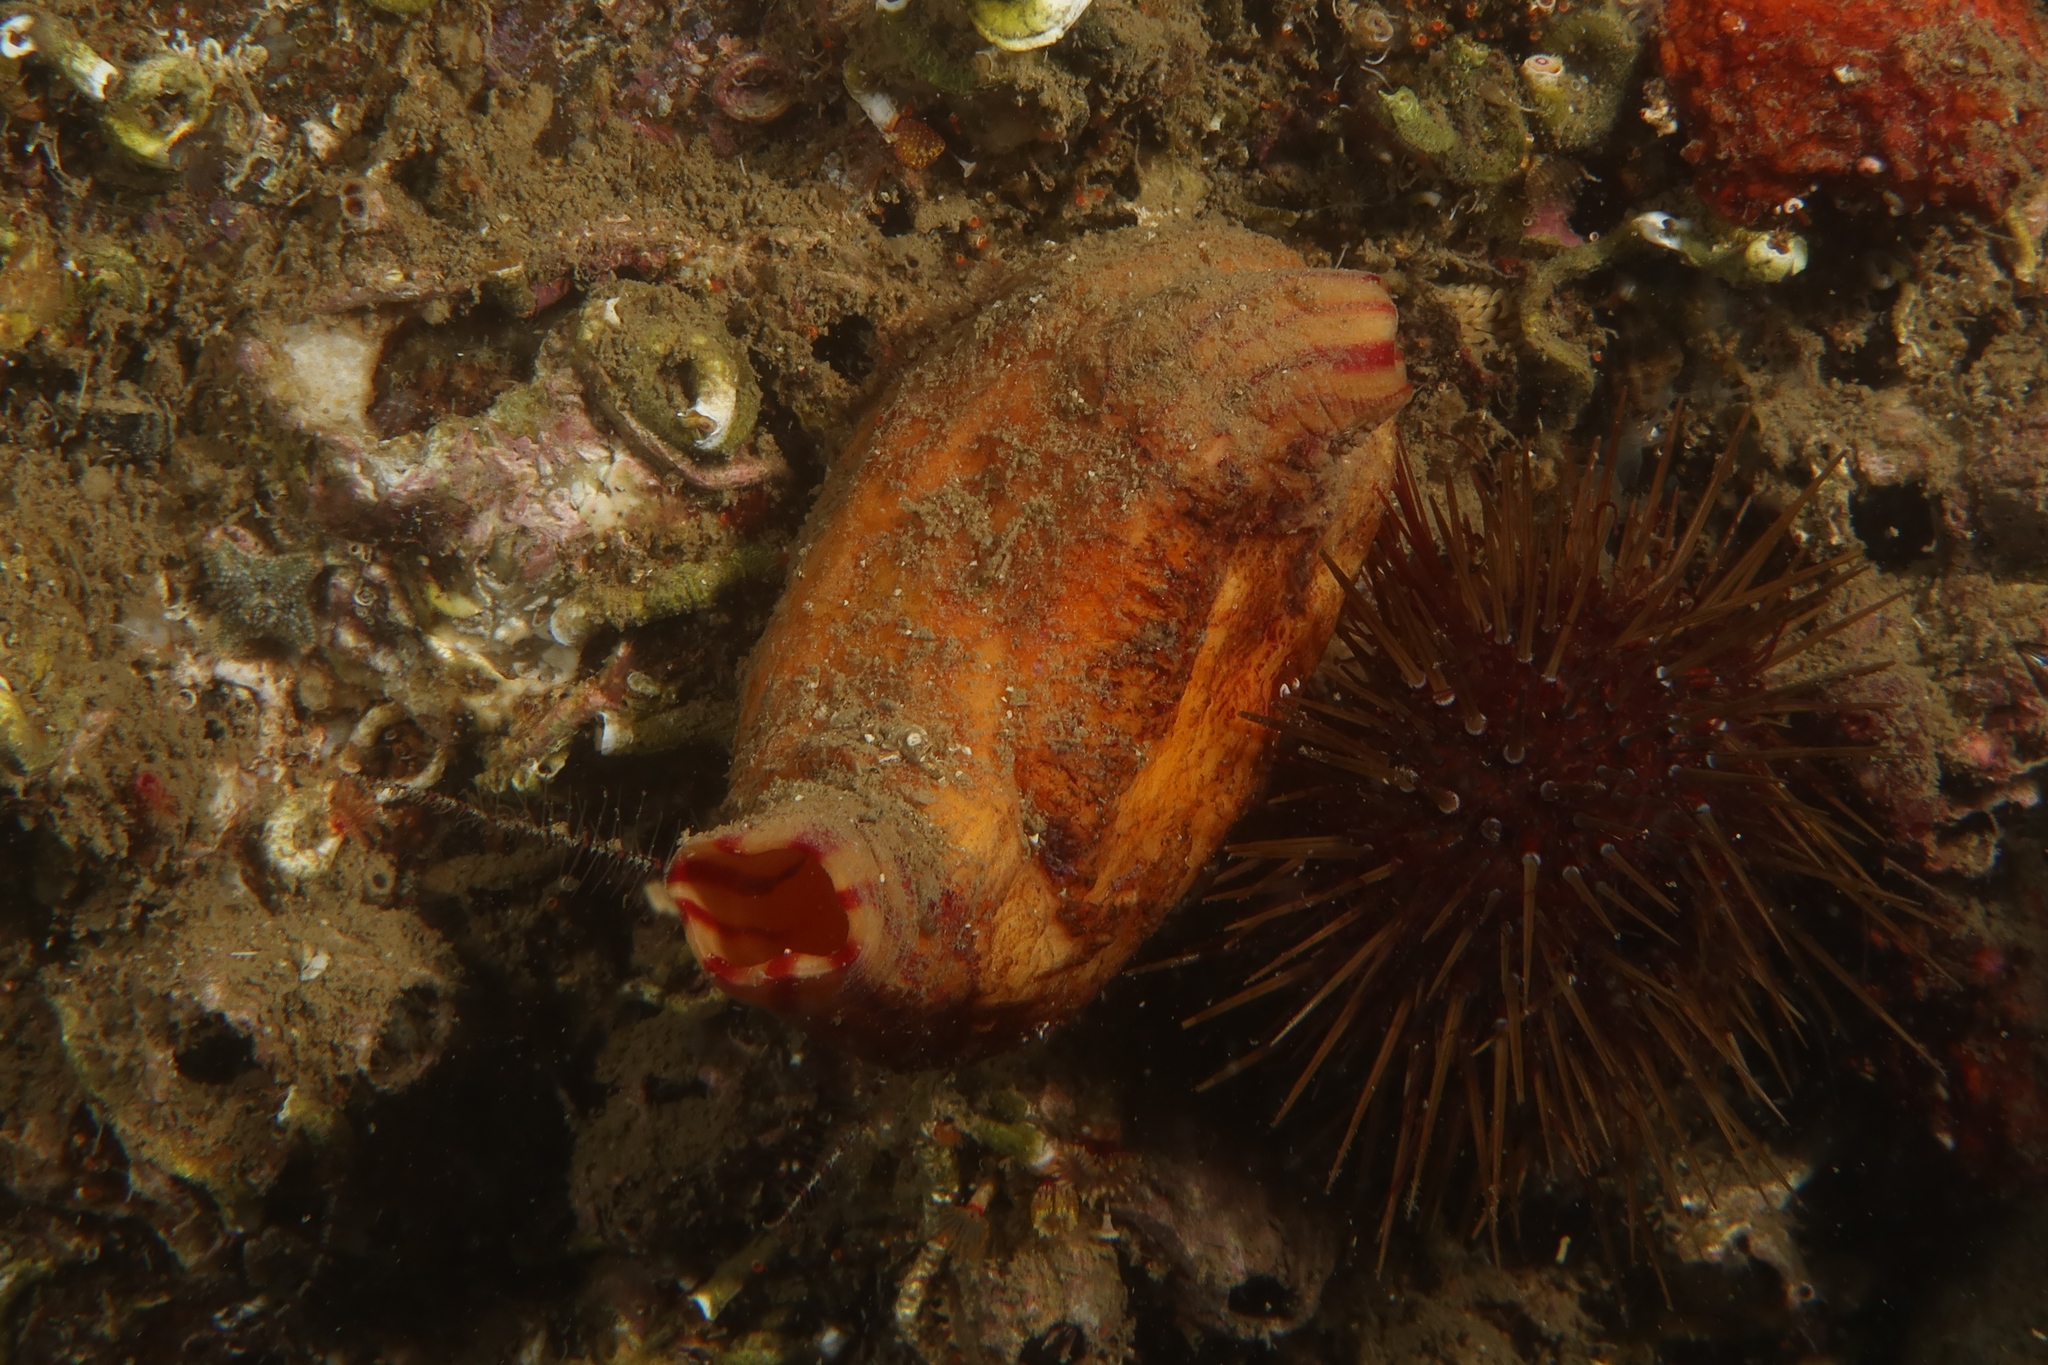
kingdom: Animalia
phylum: Chordata
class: Ascidiacea
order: Stolidobranchia
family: Pyuridae
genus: Microcosmus
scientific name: Microcosmus sabatieri
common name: Grooved sea squirt
